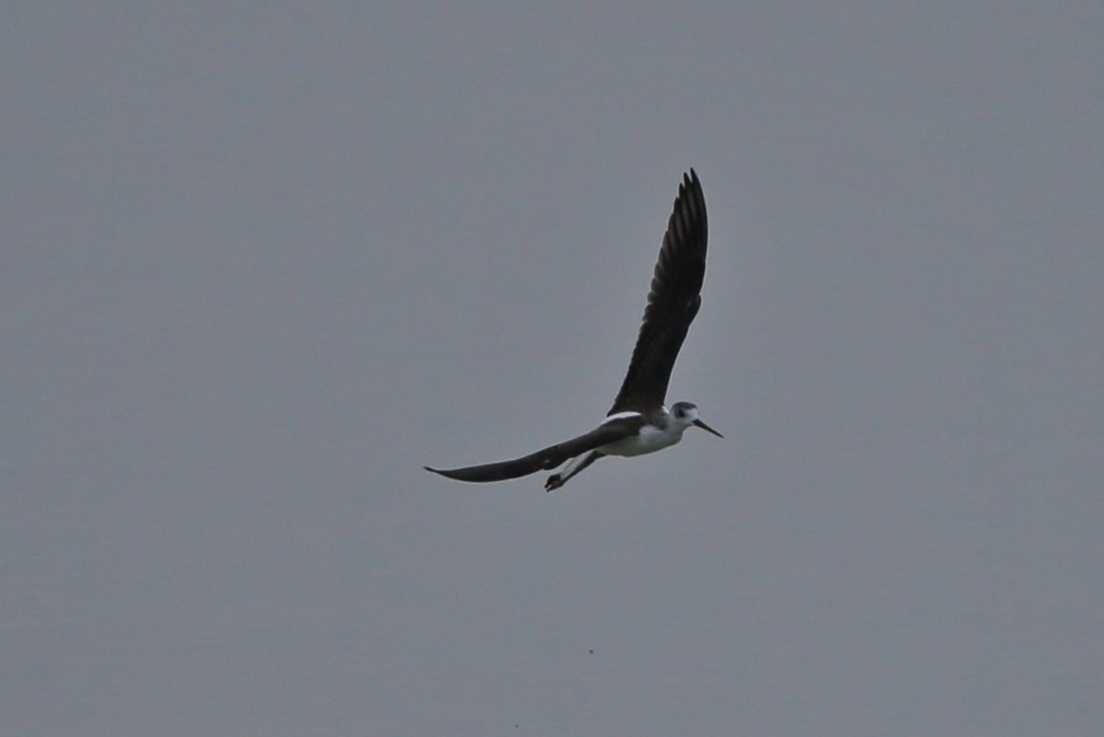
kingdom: Animalia
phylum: Chordata
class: Aves
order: Charadriiformes
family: Recurvirostridae
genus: Himantopus
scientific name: Himantopus himantopus
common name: Black-winged stilt
